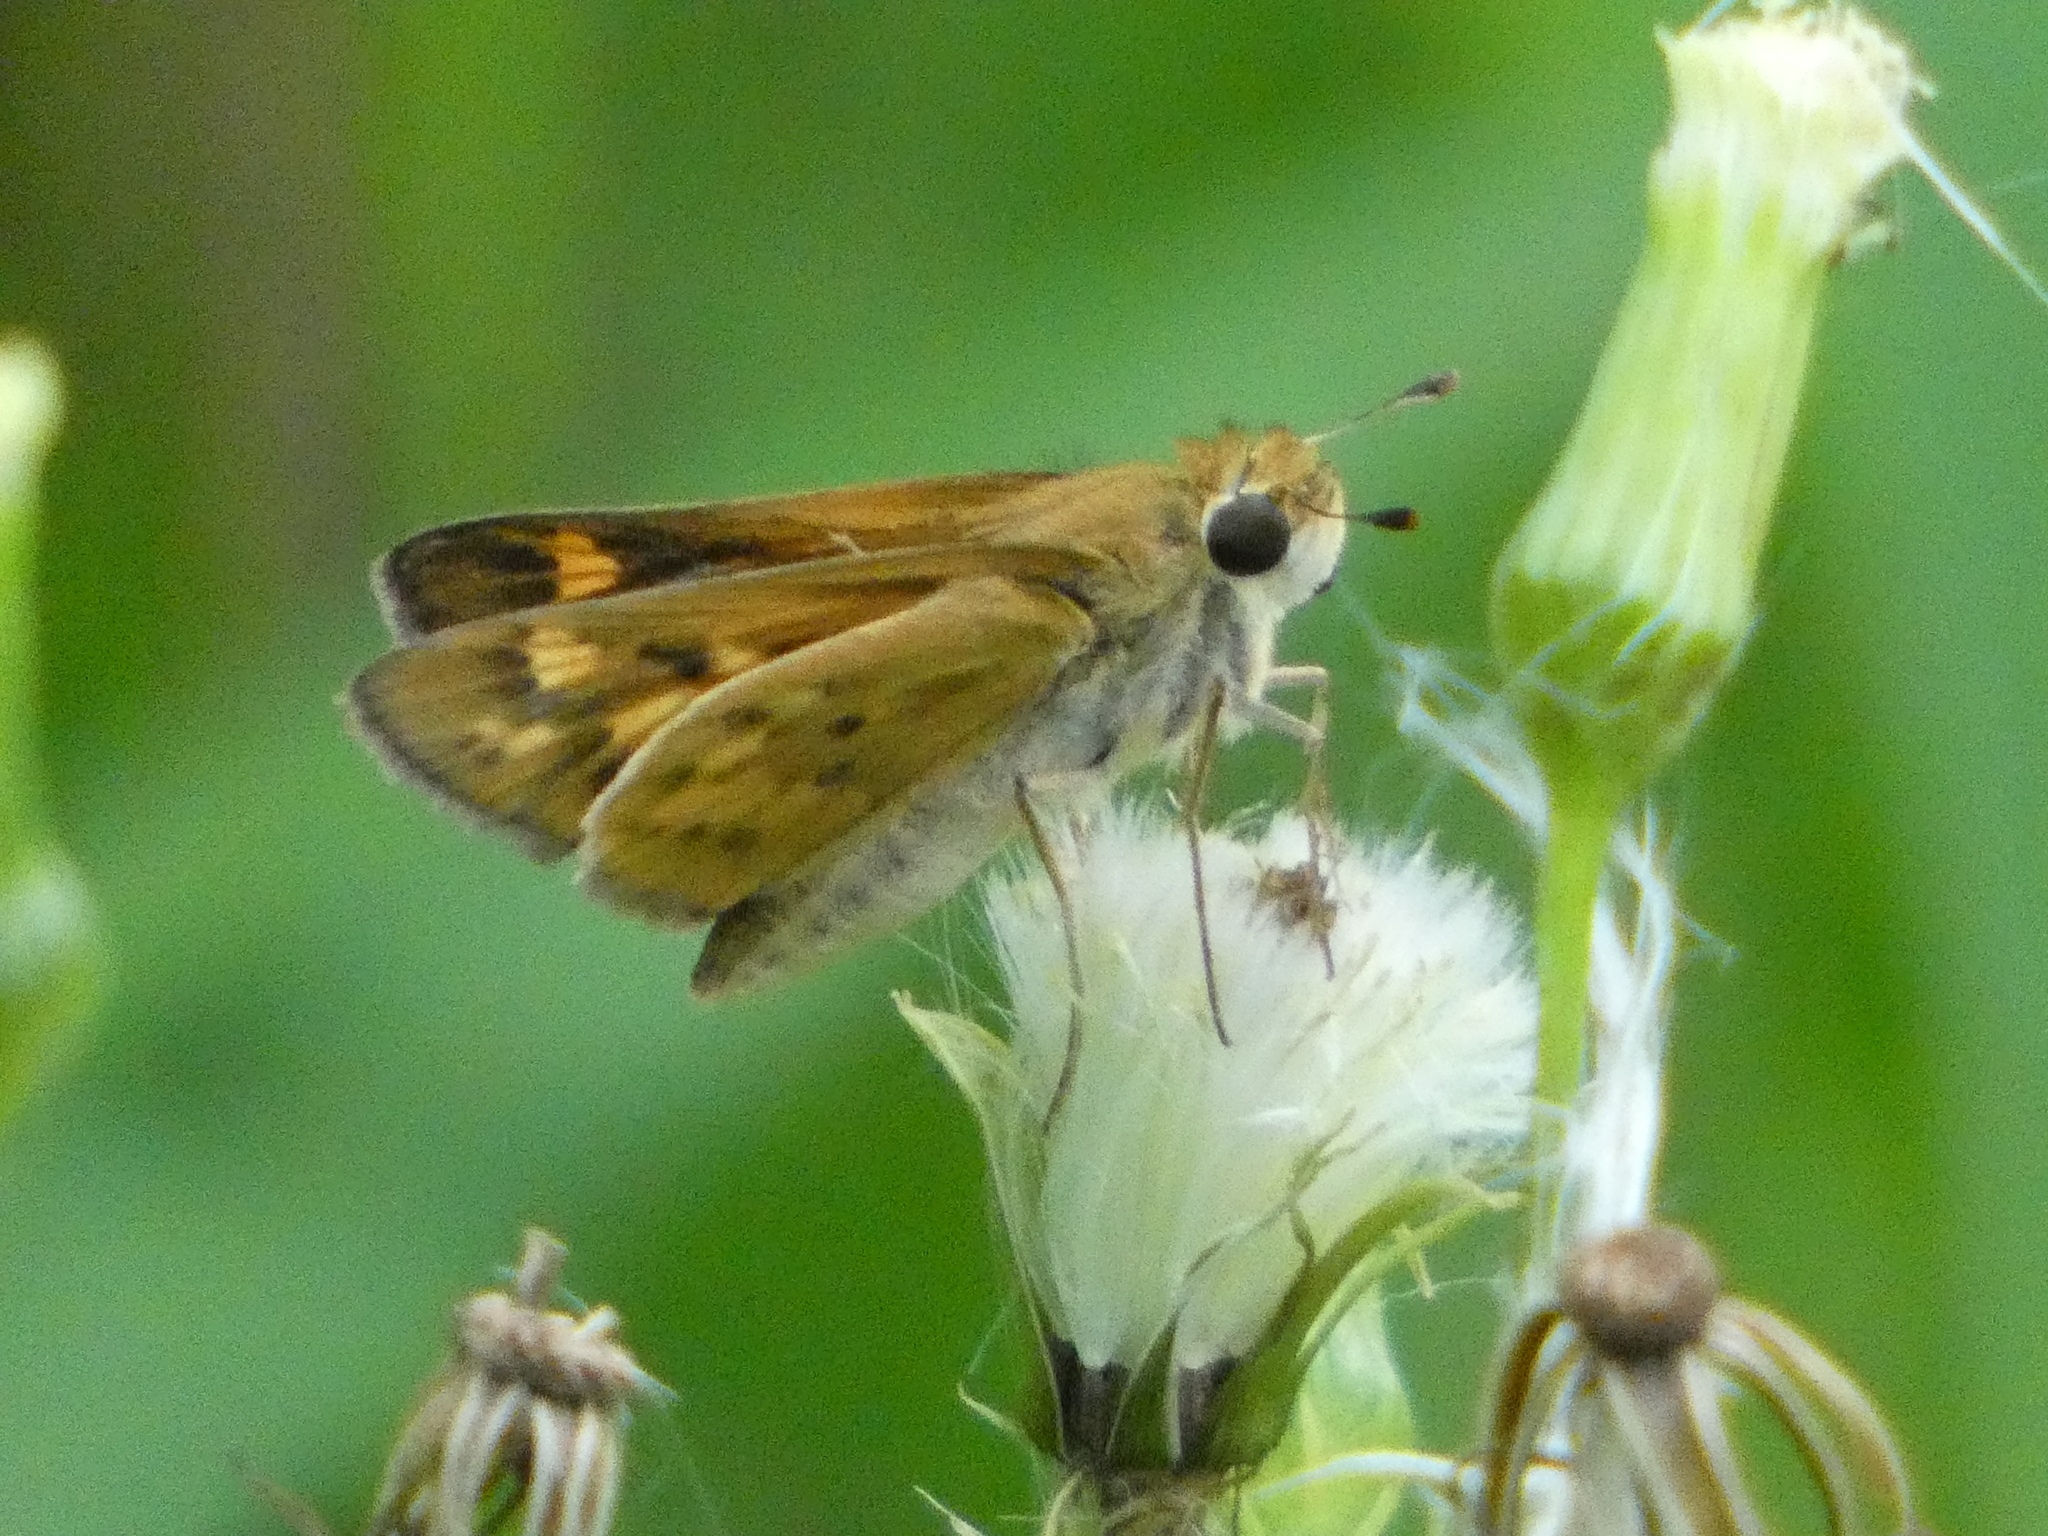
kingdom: Animalia
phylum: Arthropoda
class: Insecta
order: Lepidoptera
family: Hesperiidae
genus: Hylephila
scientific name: Hylephila phyleus
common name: Fiery skipper
